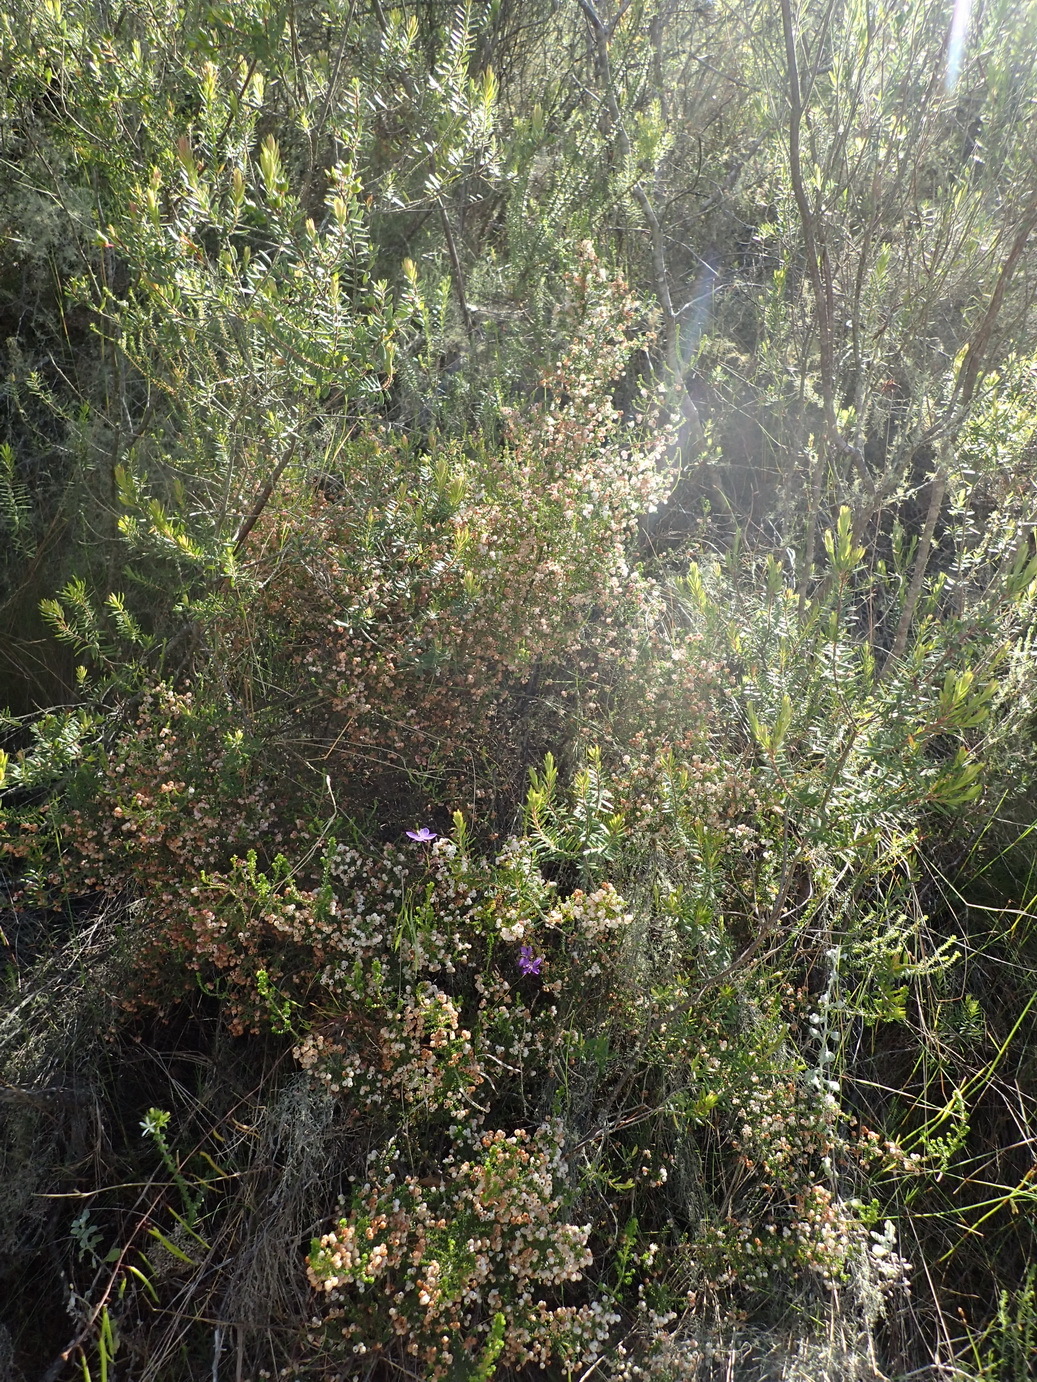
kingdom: Plantae
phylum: Tracheophyta
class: Magnoliopsida
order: Ericales
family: Ericaceae
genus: Erica
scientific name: Erica formosa
